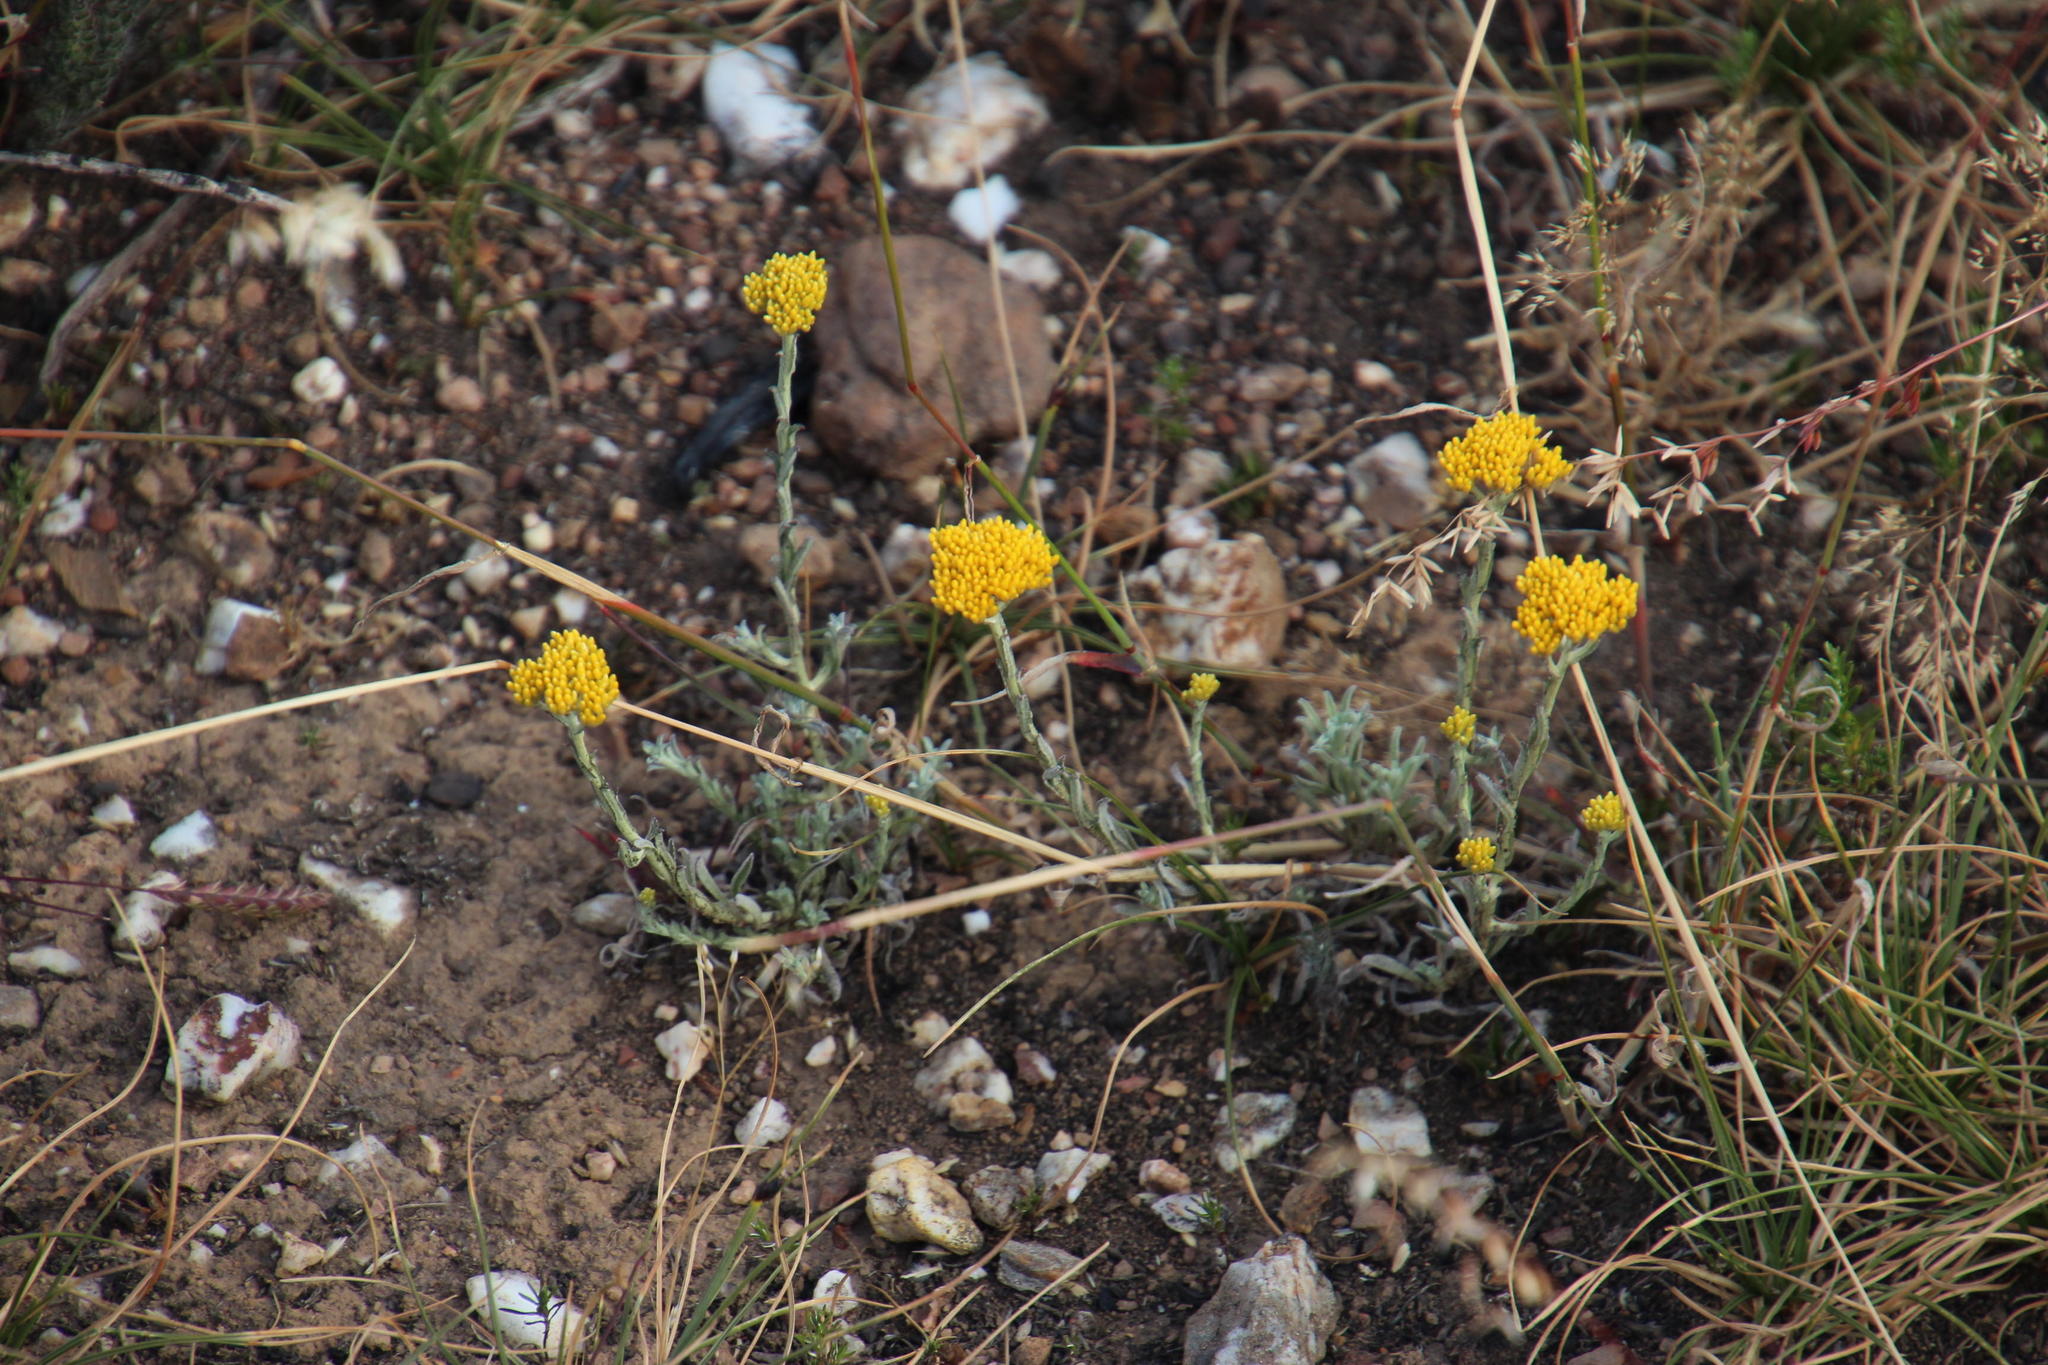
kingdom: Plantae
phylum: Tracheophyta
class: Magnoliopsida
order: Asterales
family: Asteraceae
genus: Helichrysum
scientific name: Helichrysum rutilans
